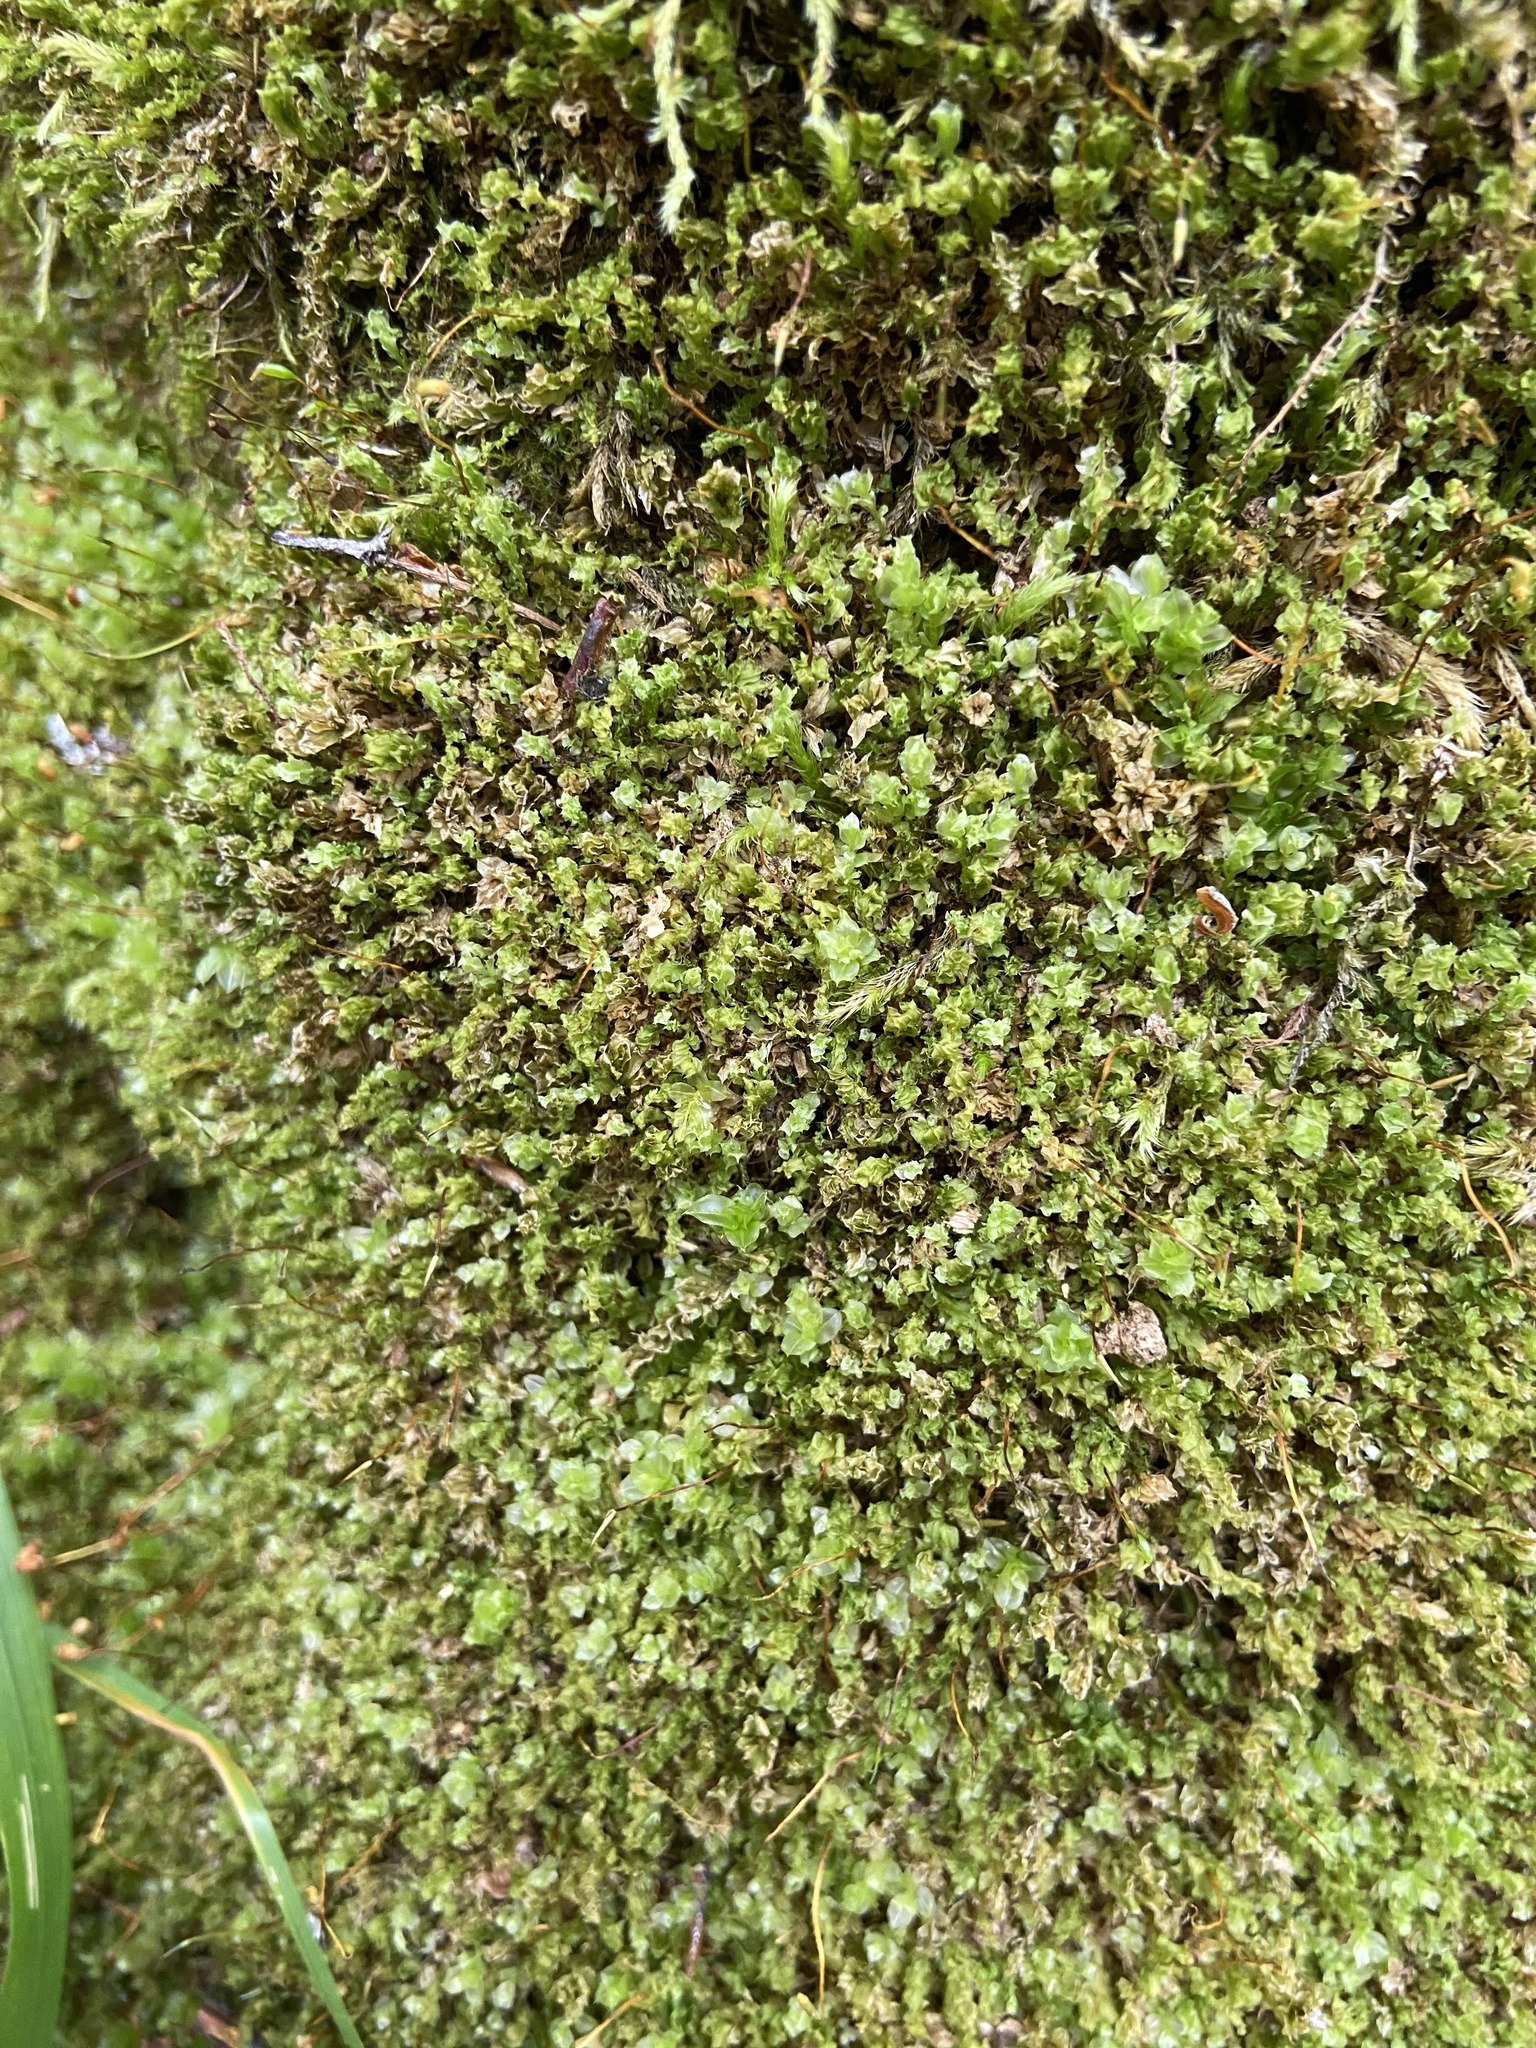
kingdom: Plantae
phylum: Bryophyta
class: Polytrichopsida
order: Tetraphidales
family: Tetraphidaceae
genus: Tetraphis
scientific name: Tetraphis pellucida
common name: Common four-toothed moss
